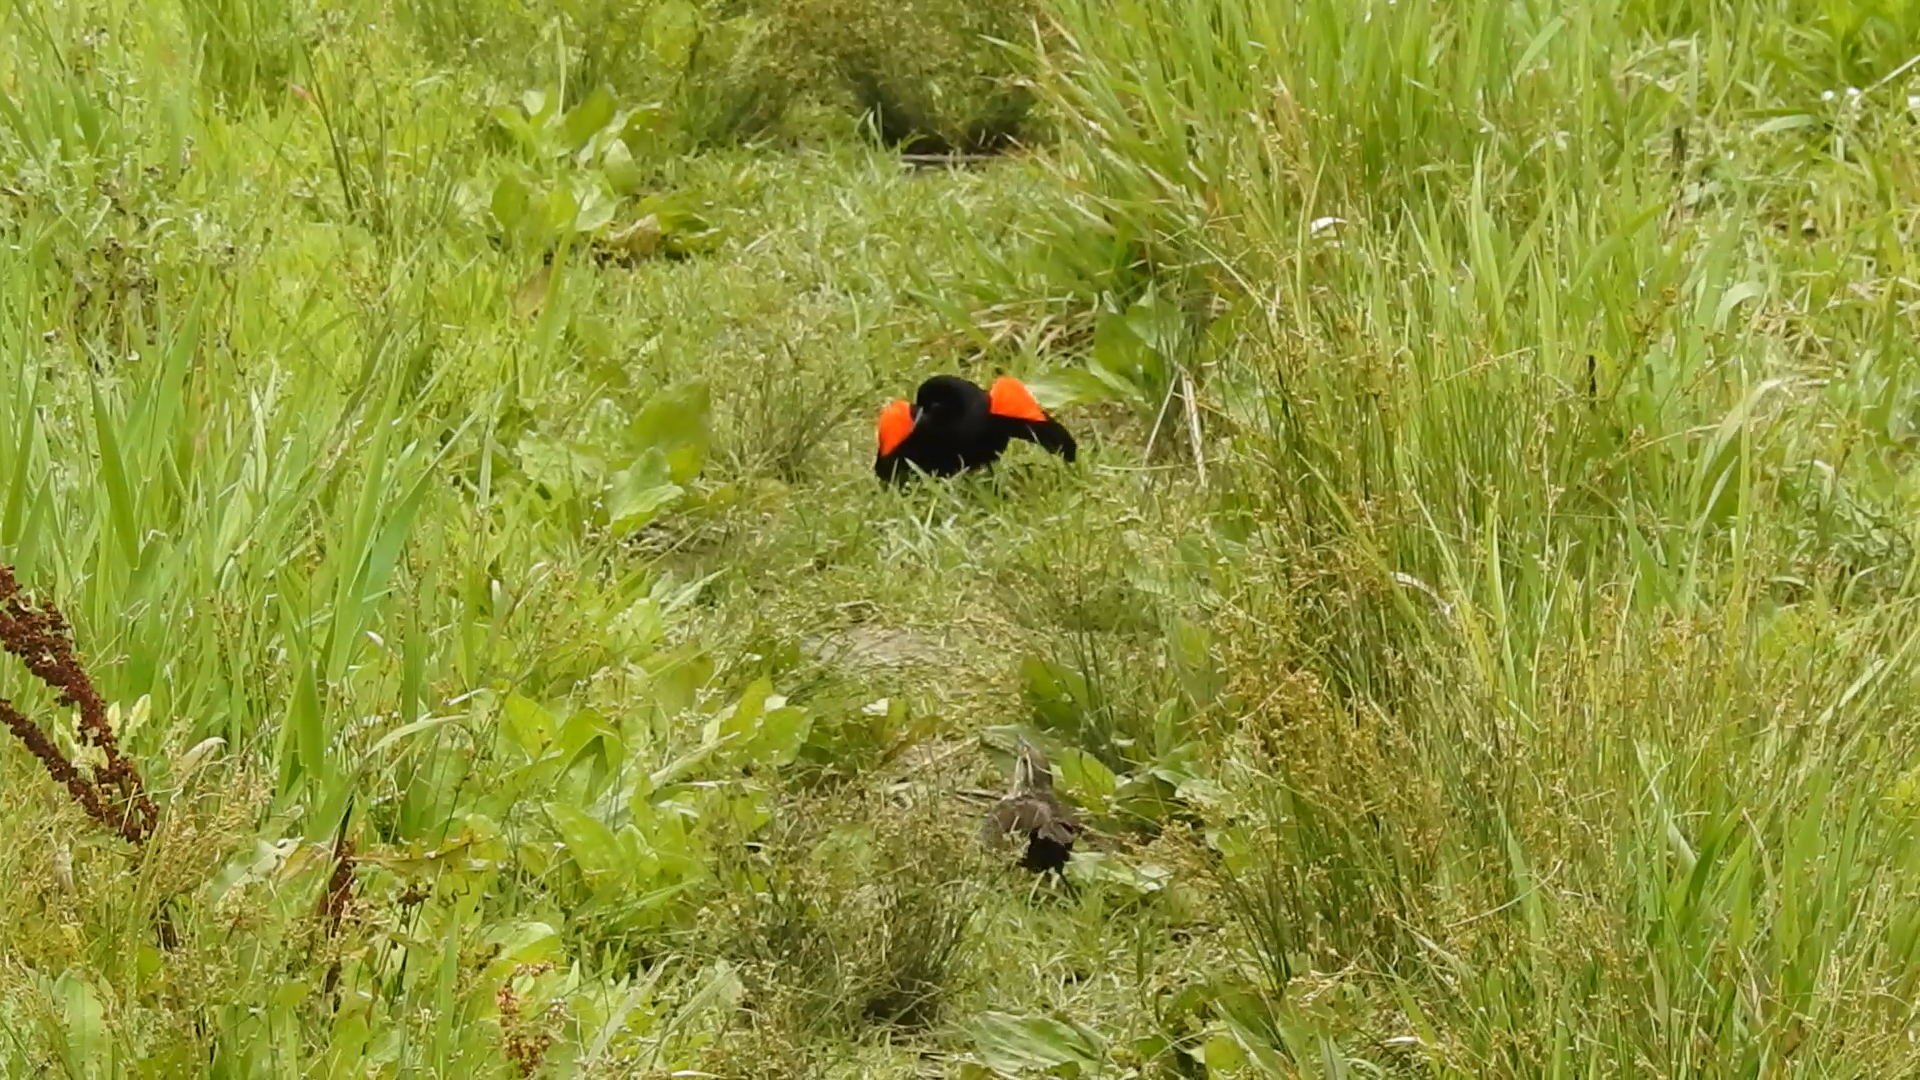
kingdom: Animalia
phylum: Chordata
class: Aves
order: Passeriformes
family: Icteridae
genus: Agelaius
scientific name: Agelaius phoeniceus
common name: Red-winged blackbird
